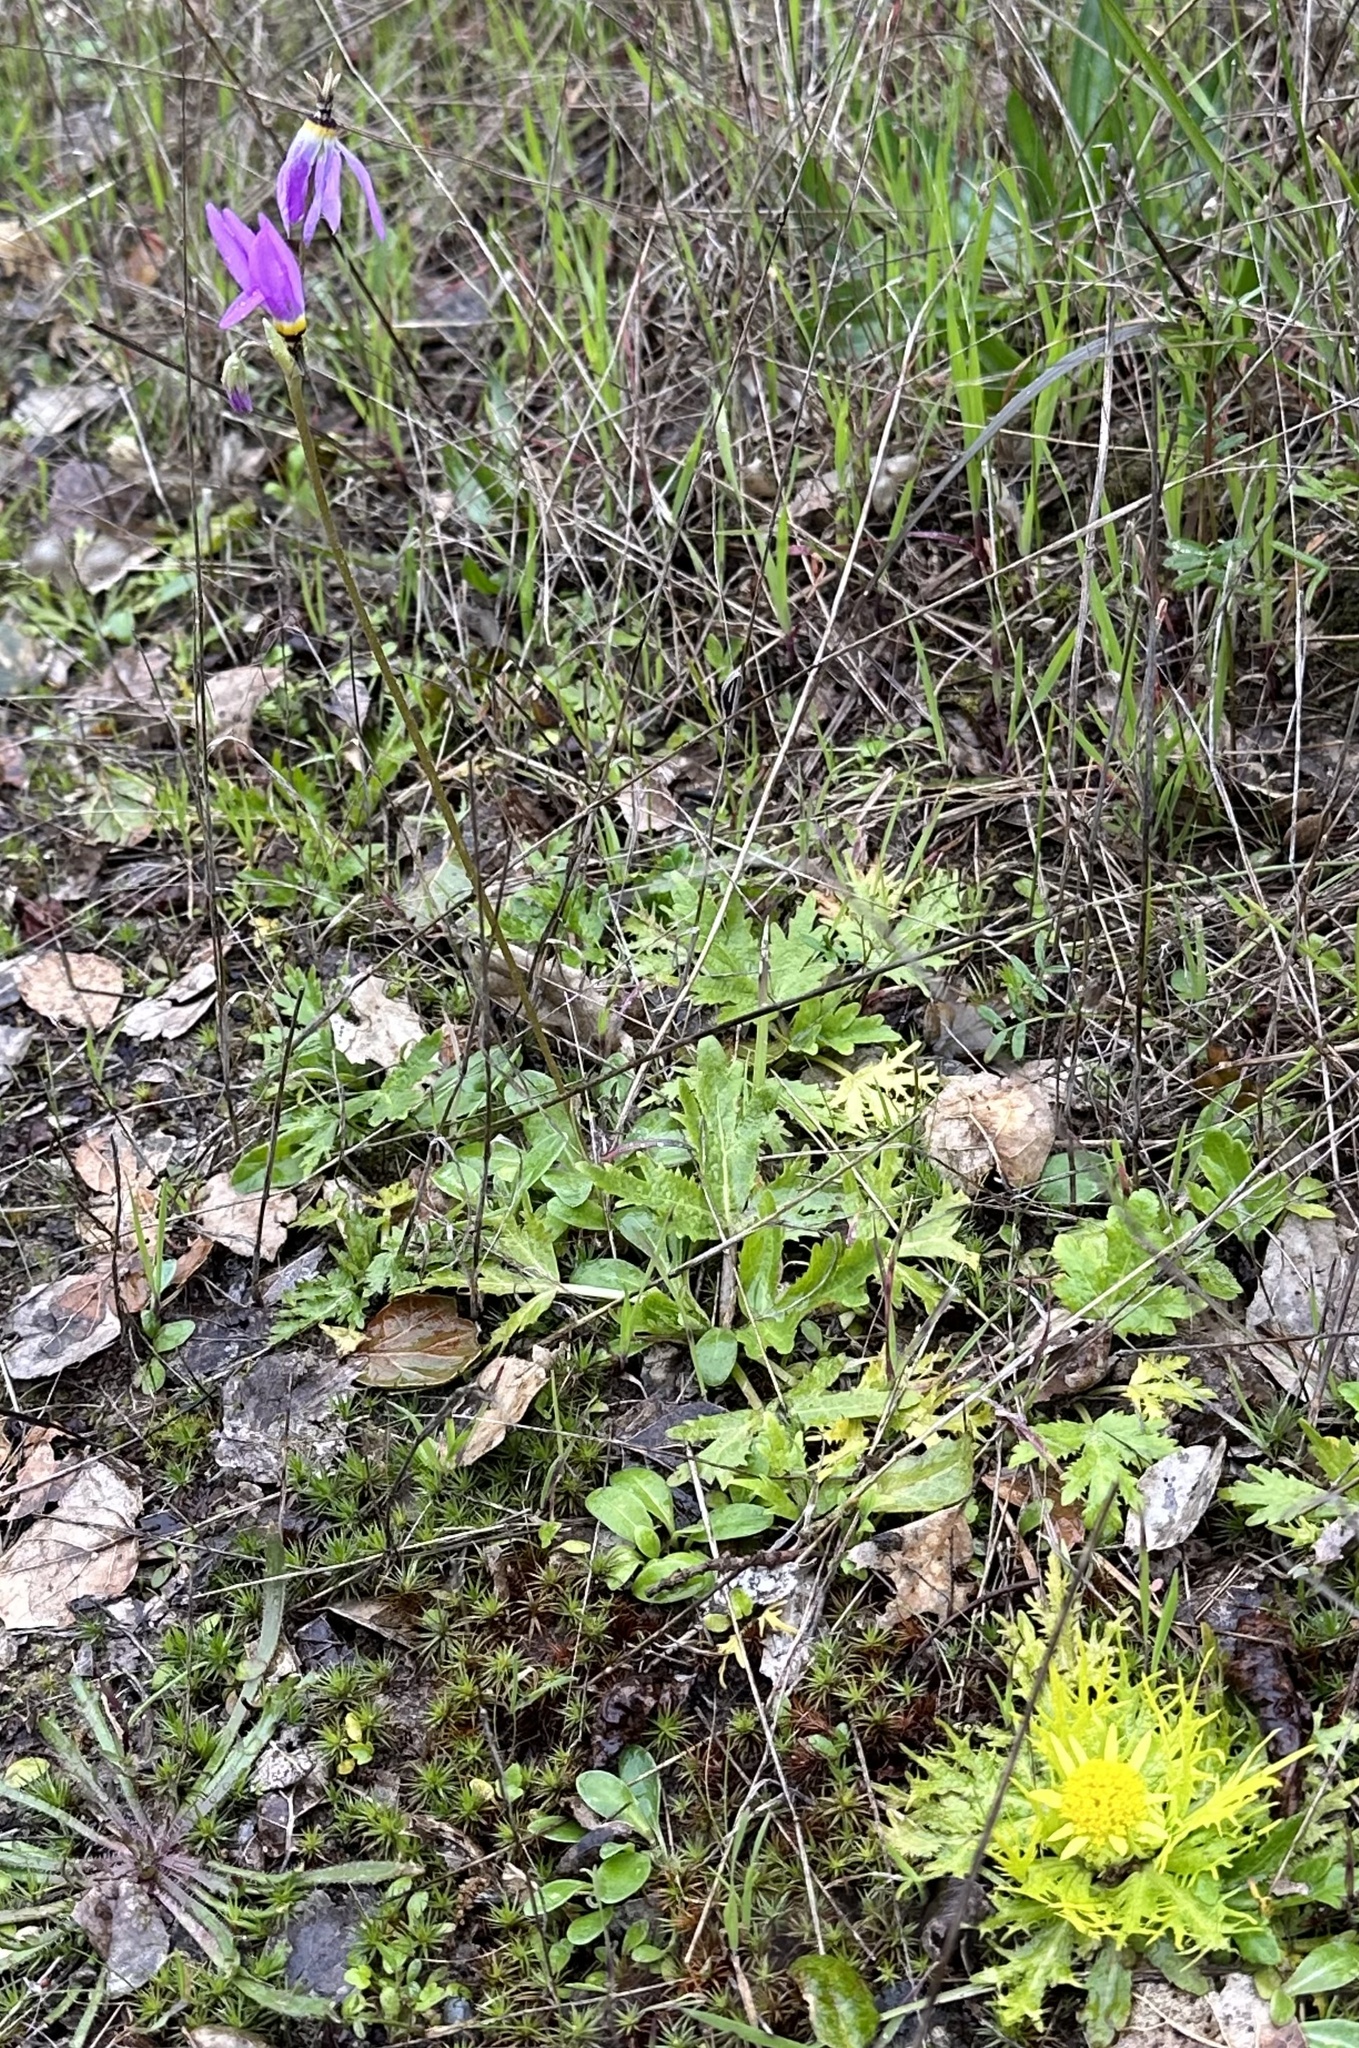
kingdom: Plantae
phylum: Tracheophyta
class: Magnoliopsida
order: Ericales
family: Primulaceae
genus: Dodecatheon
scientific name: Dodecatheon clevelandii
